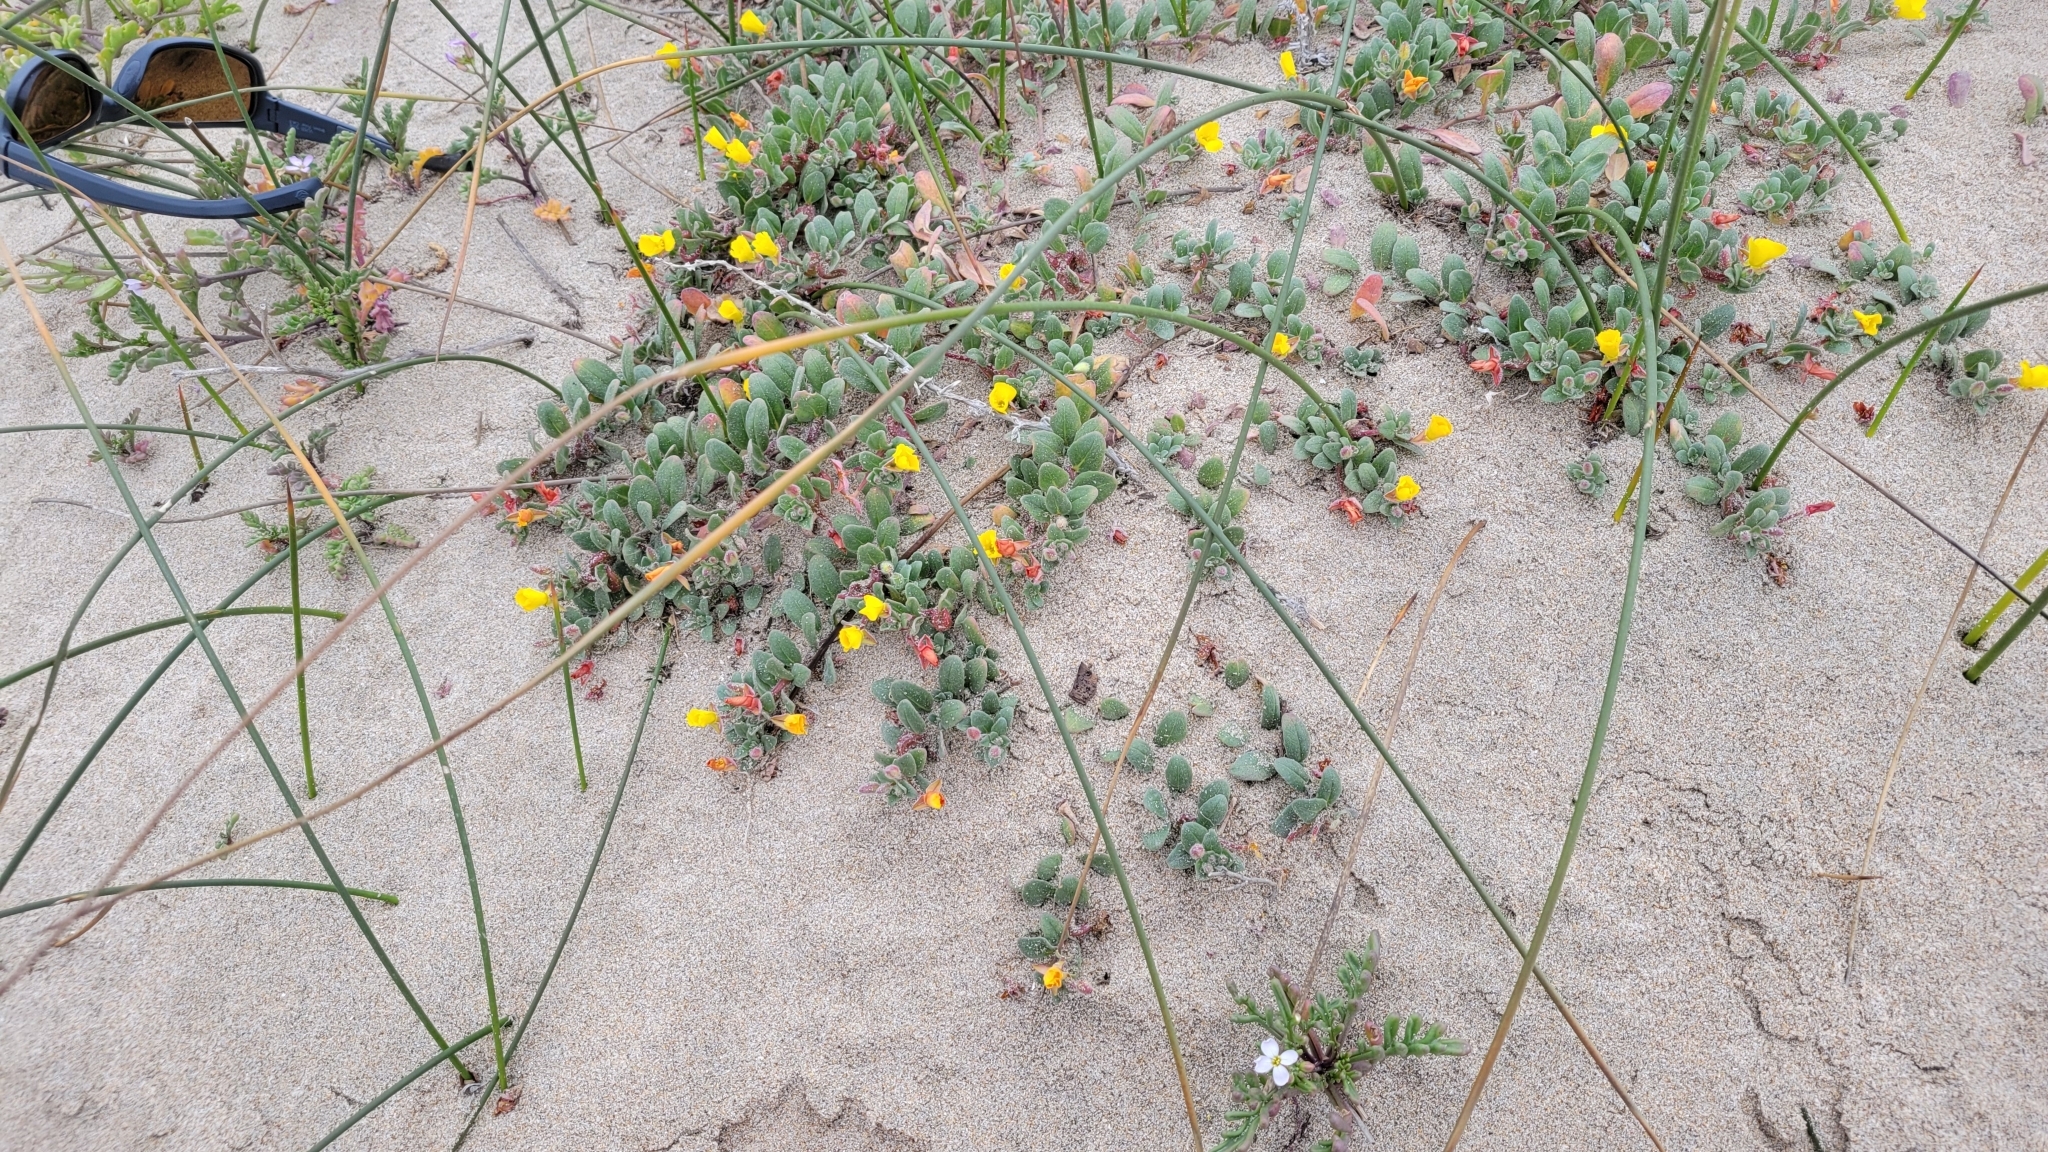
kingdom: Plantae
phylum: Tracheophyta
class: Magnoliopsida
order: Myrtales
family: Onagraceae
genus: Camissoniopsis
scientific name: Camissoniopsis cheiranthifolia
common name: Beach suncup
